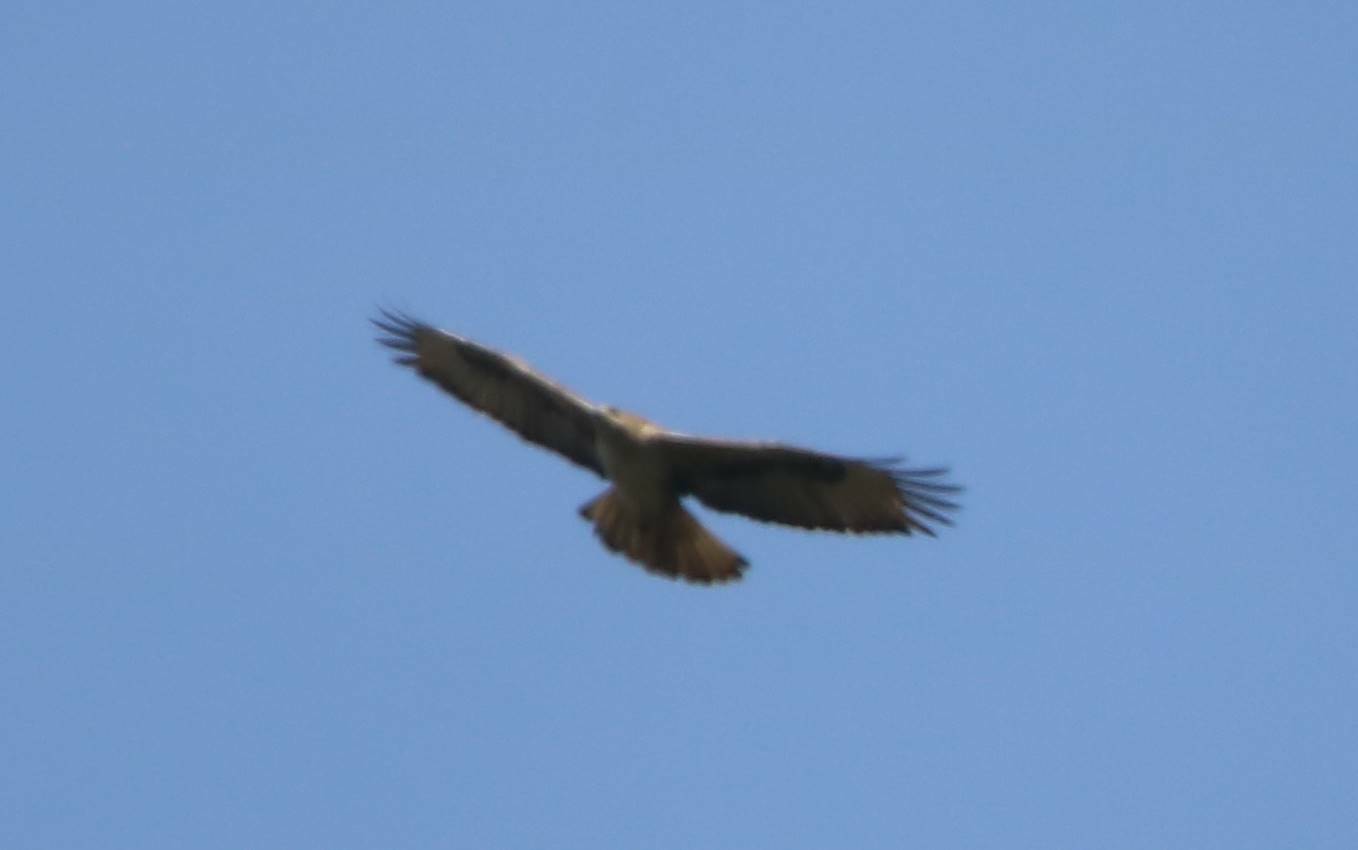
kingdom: Animalia
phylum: Chordata
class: Aves
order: Accipitriformes
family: Accipitridae
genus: Aquila
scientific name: Aquila fasciata
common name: Bonelli's eagle
